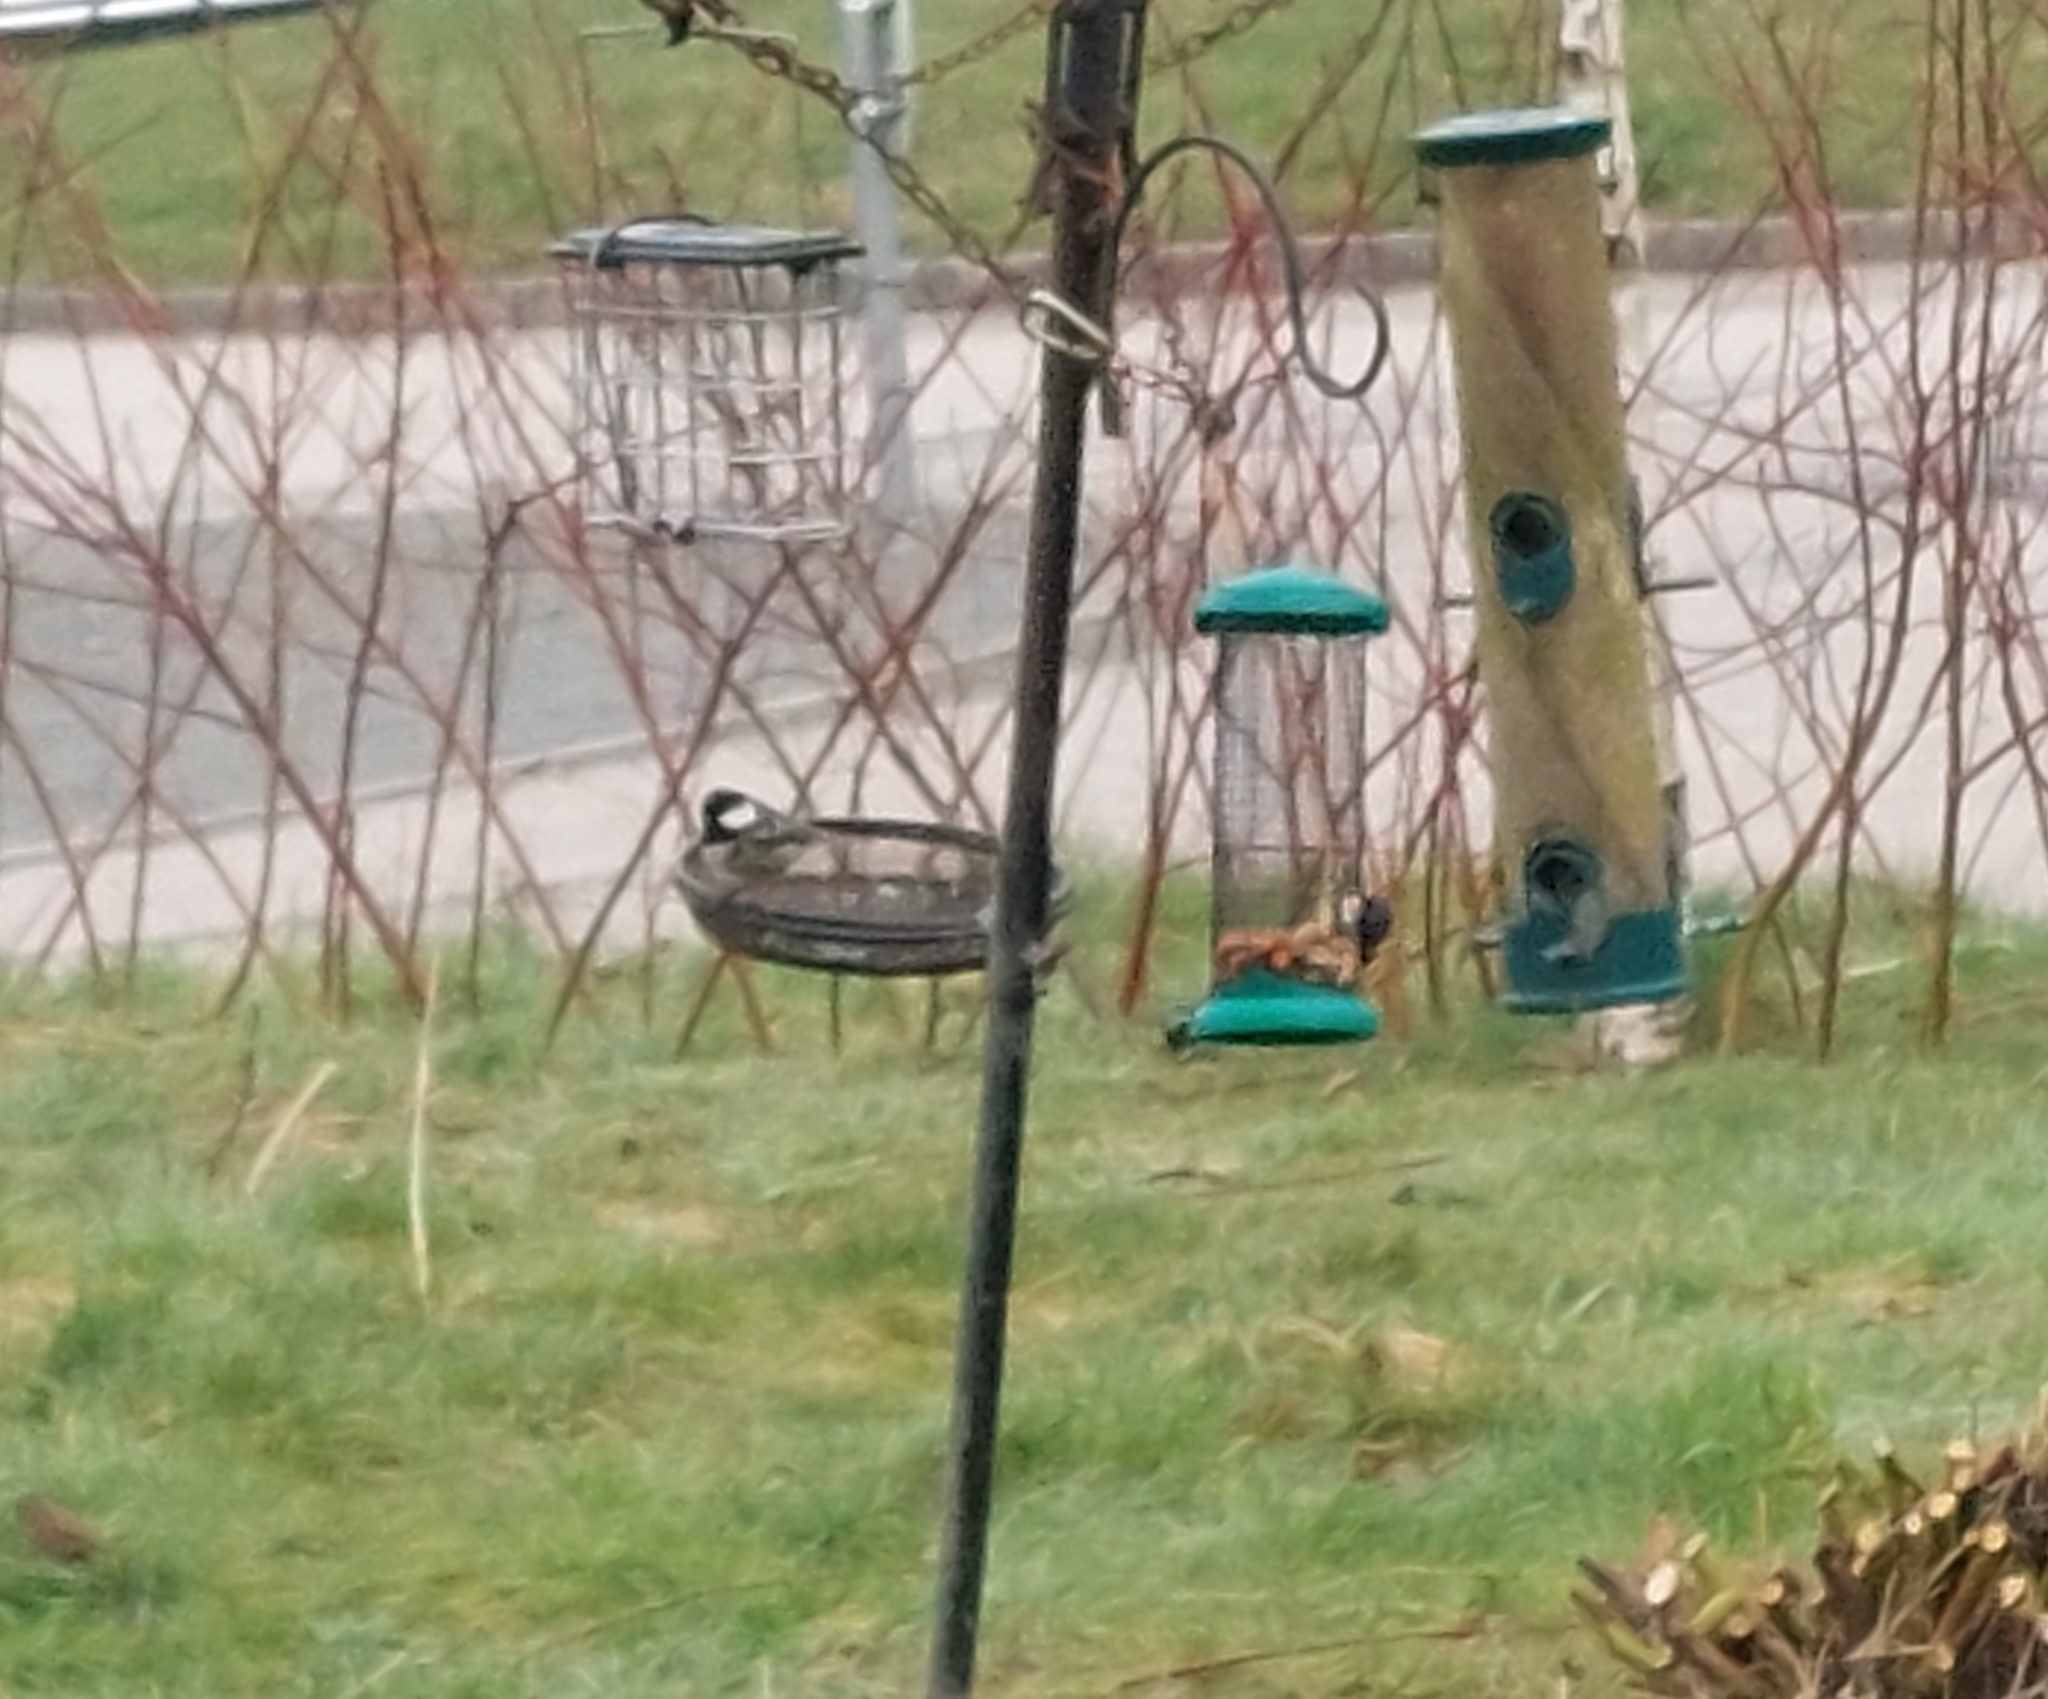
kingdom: Animalia
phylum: Chordata
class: Aves
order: Passeriformes
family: Paridae
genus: Periparus
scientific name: Periparus ater
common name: Coal tit
